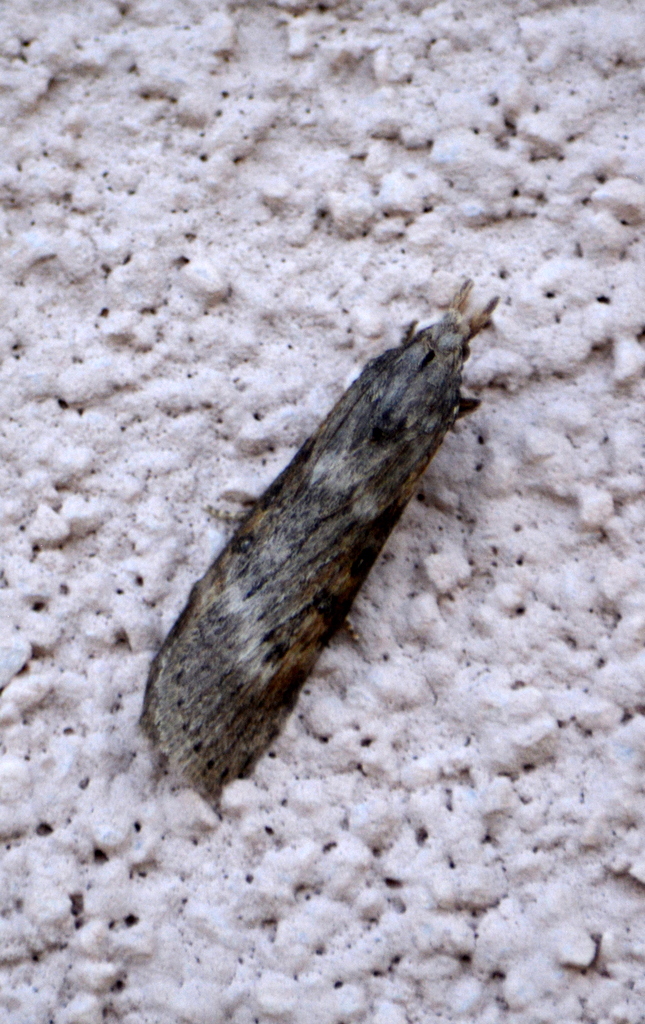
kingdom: Animalia
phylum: Arthropoda
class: Insecta
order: Lepidoptera
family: Pyralidae
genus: Lamoria
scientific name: Lamoria anella
